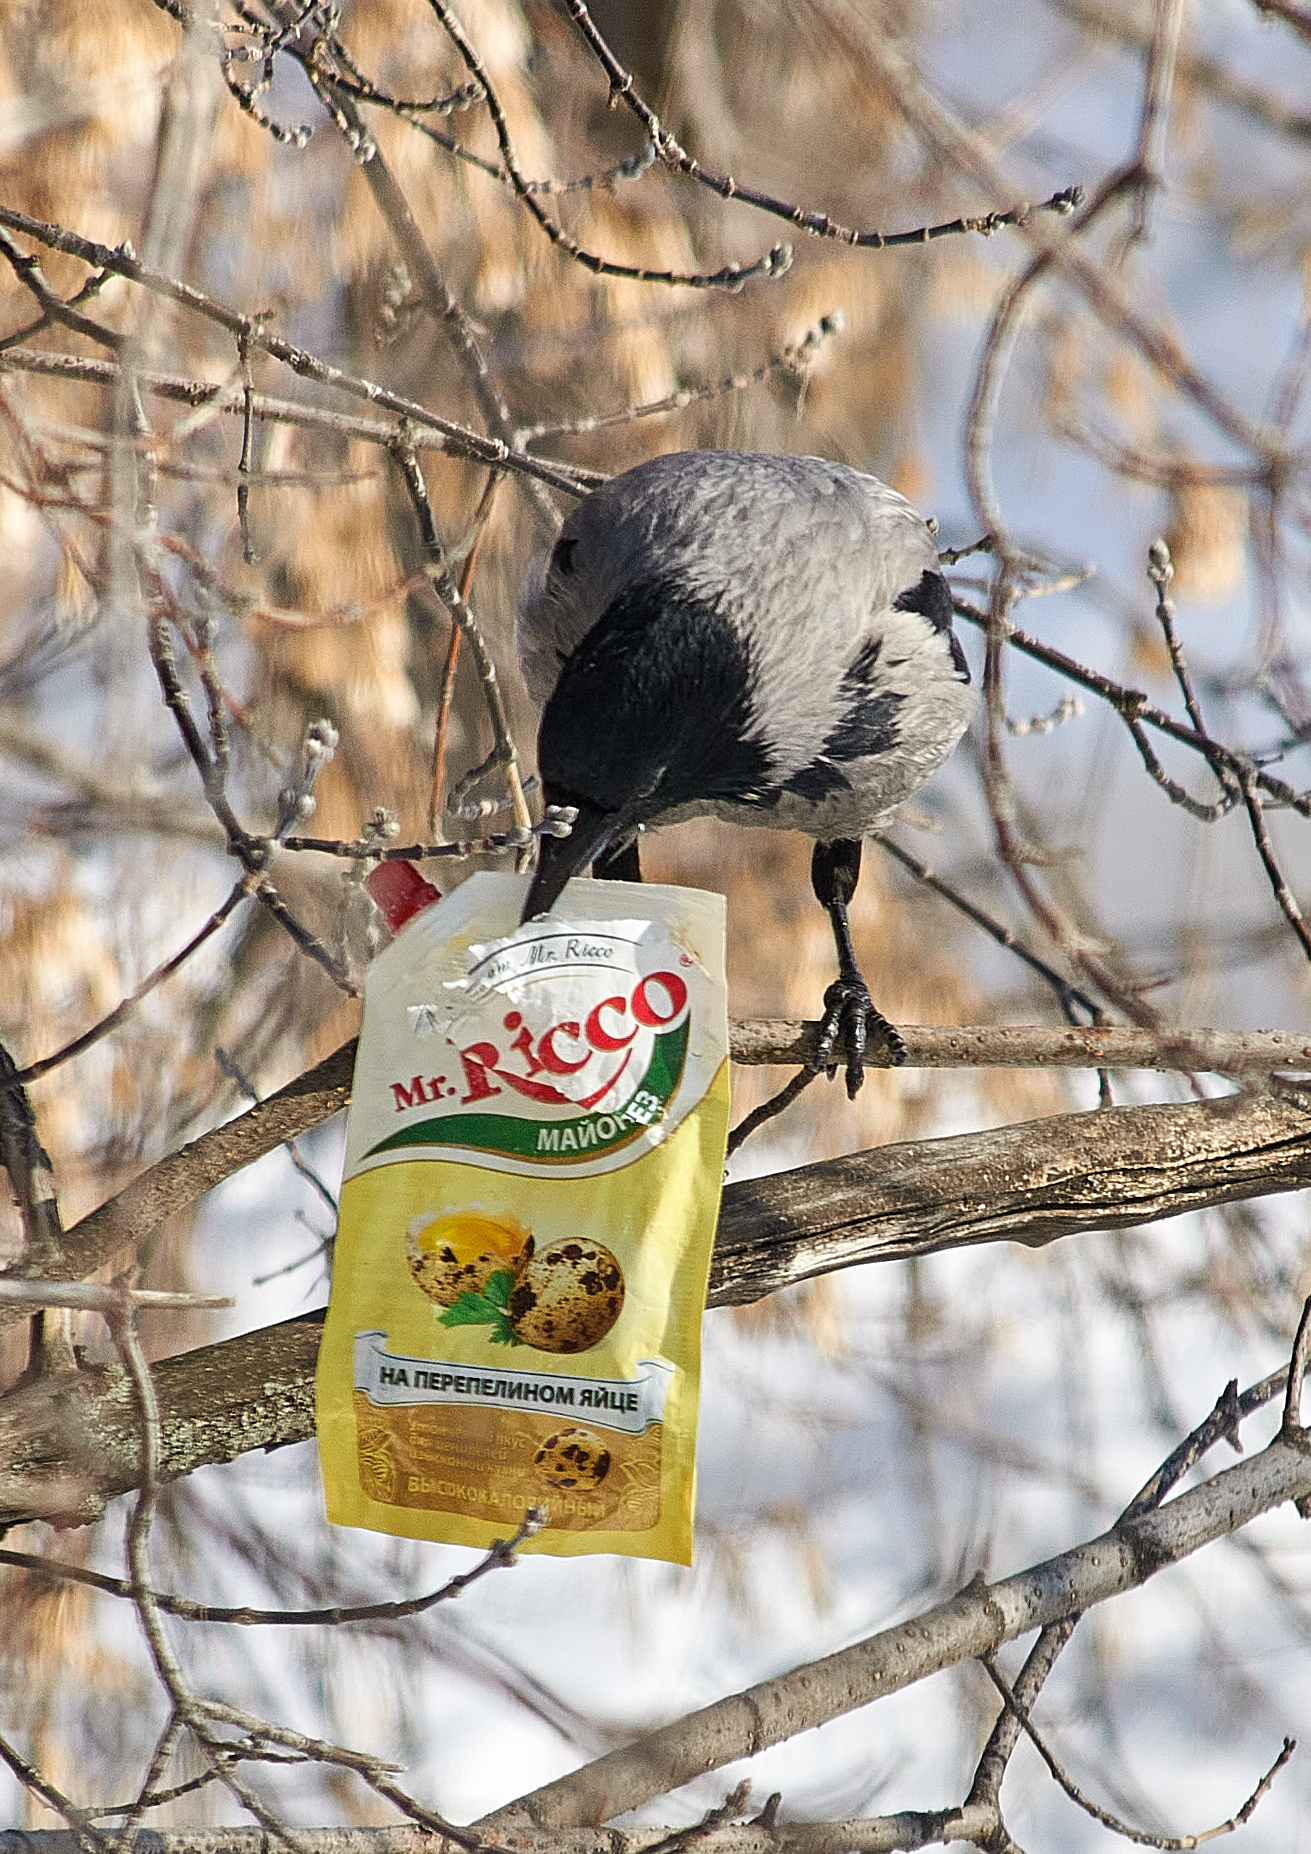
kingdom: Animalia
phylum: Chordata
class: Aves
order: Passeriformes
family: Corvidae
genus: Corvus
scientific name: Corvus cornix
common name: Hooded crow
